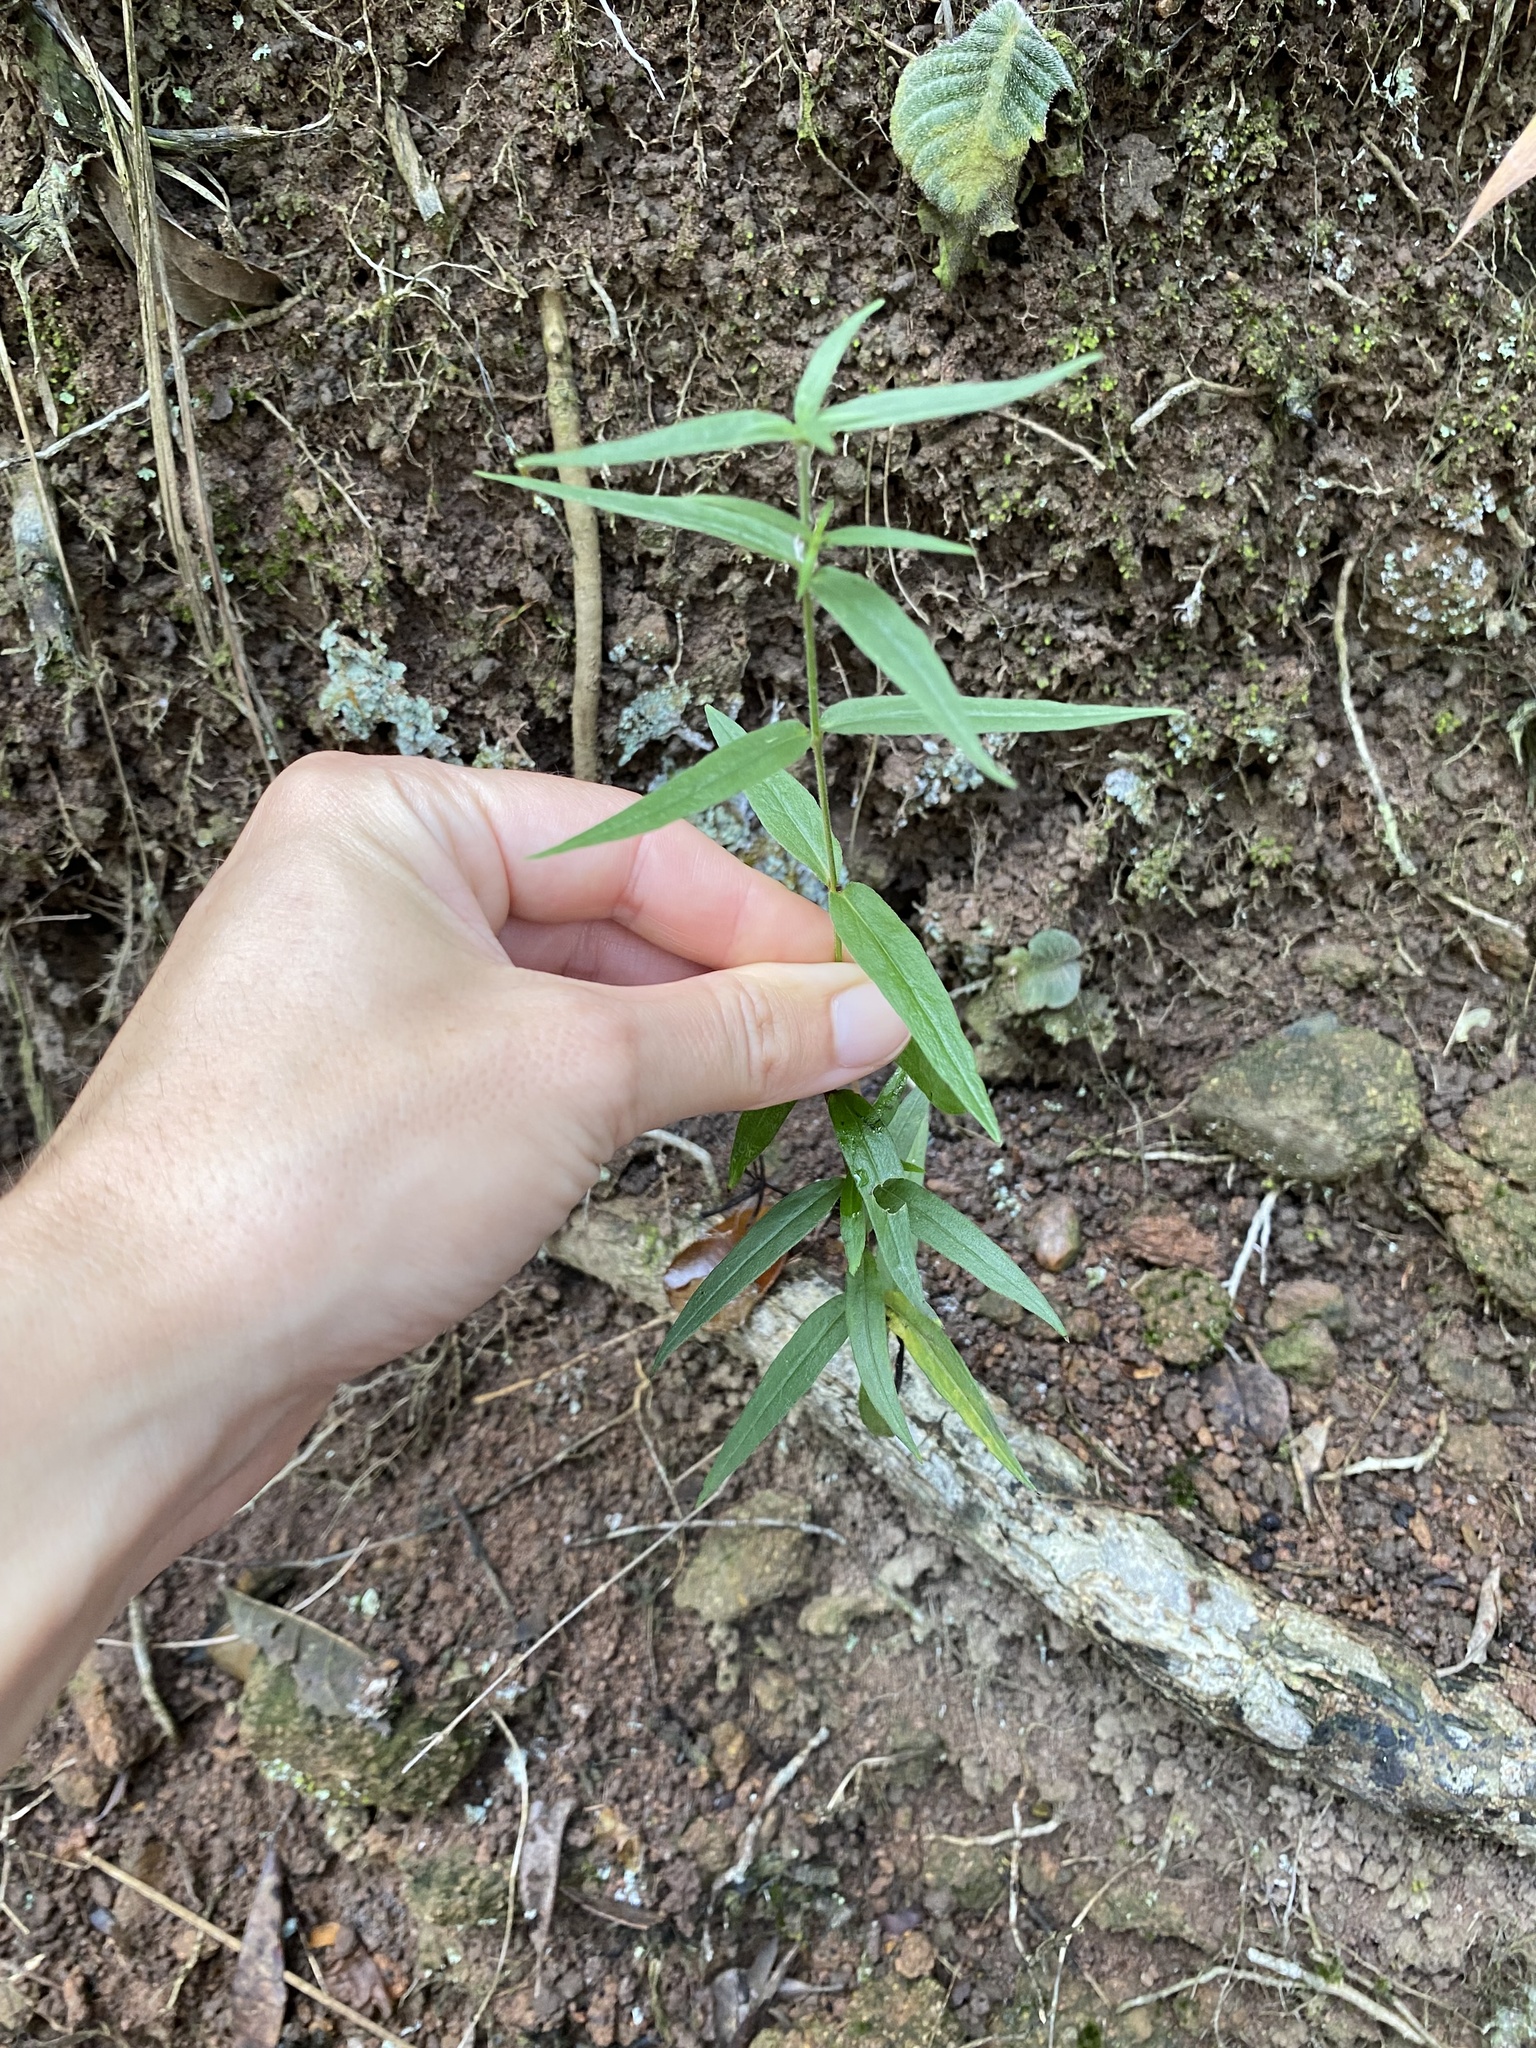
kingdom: Plantae
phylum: Tracheophyta
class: Magnoliopsida
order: Gentianales
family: Rubiaceae
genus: Conostomium
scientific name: Conostomium natalense
